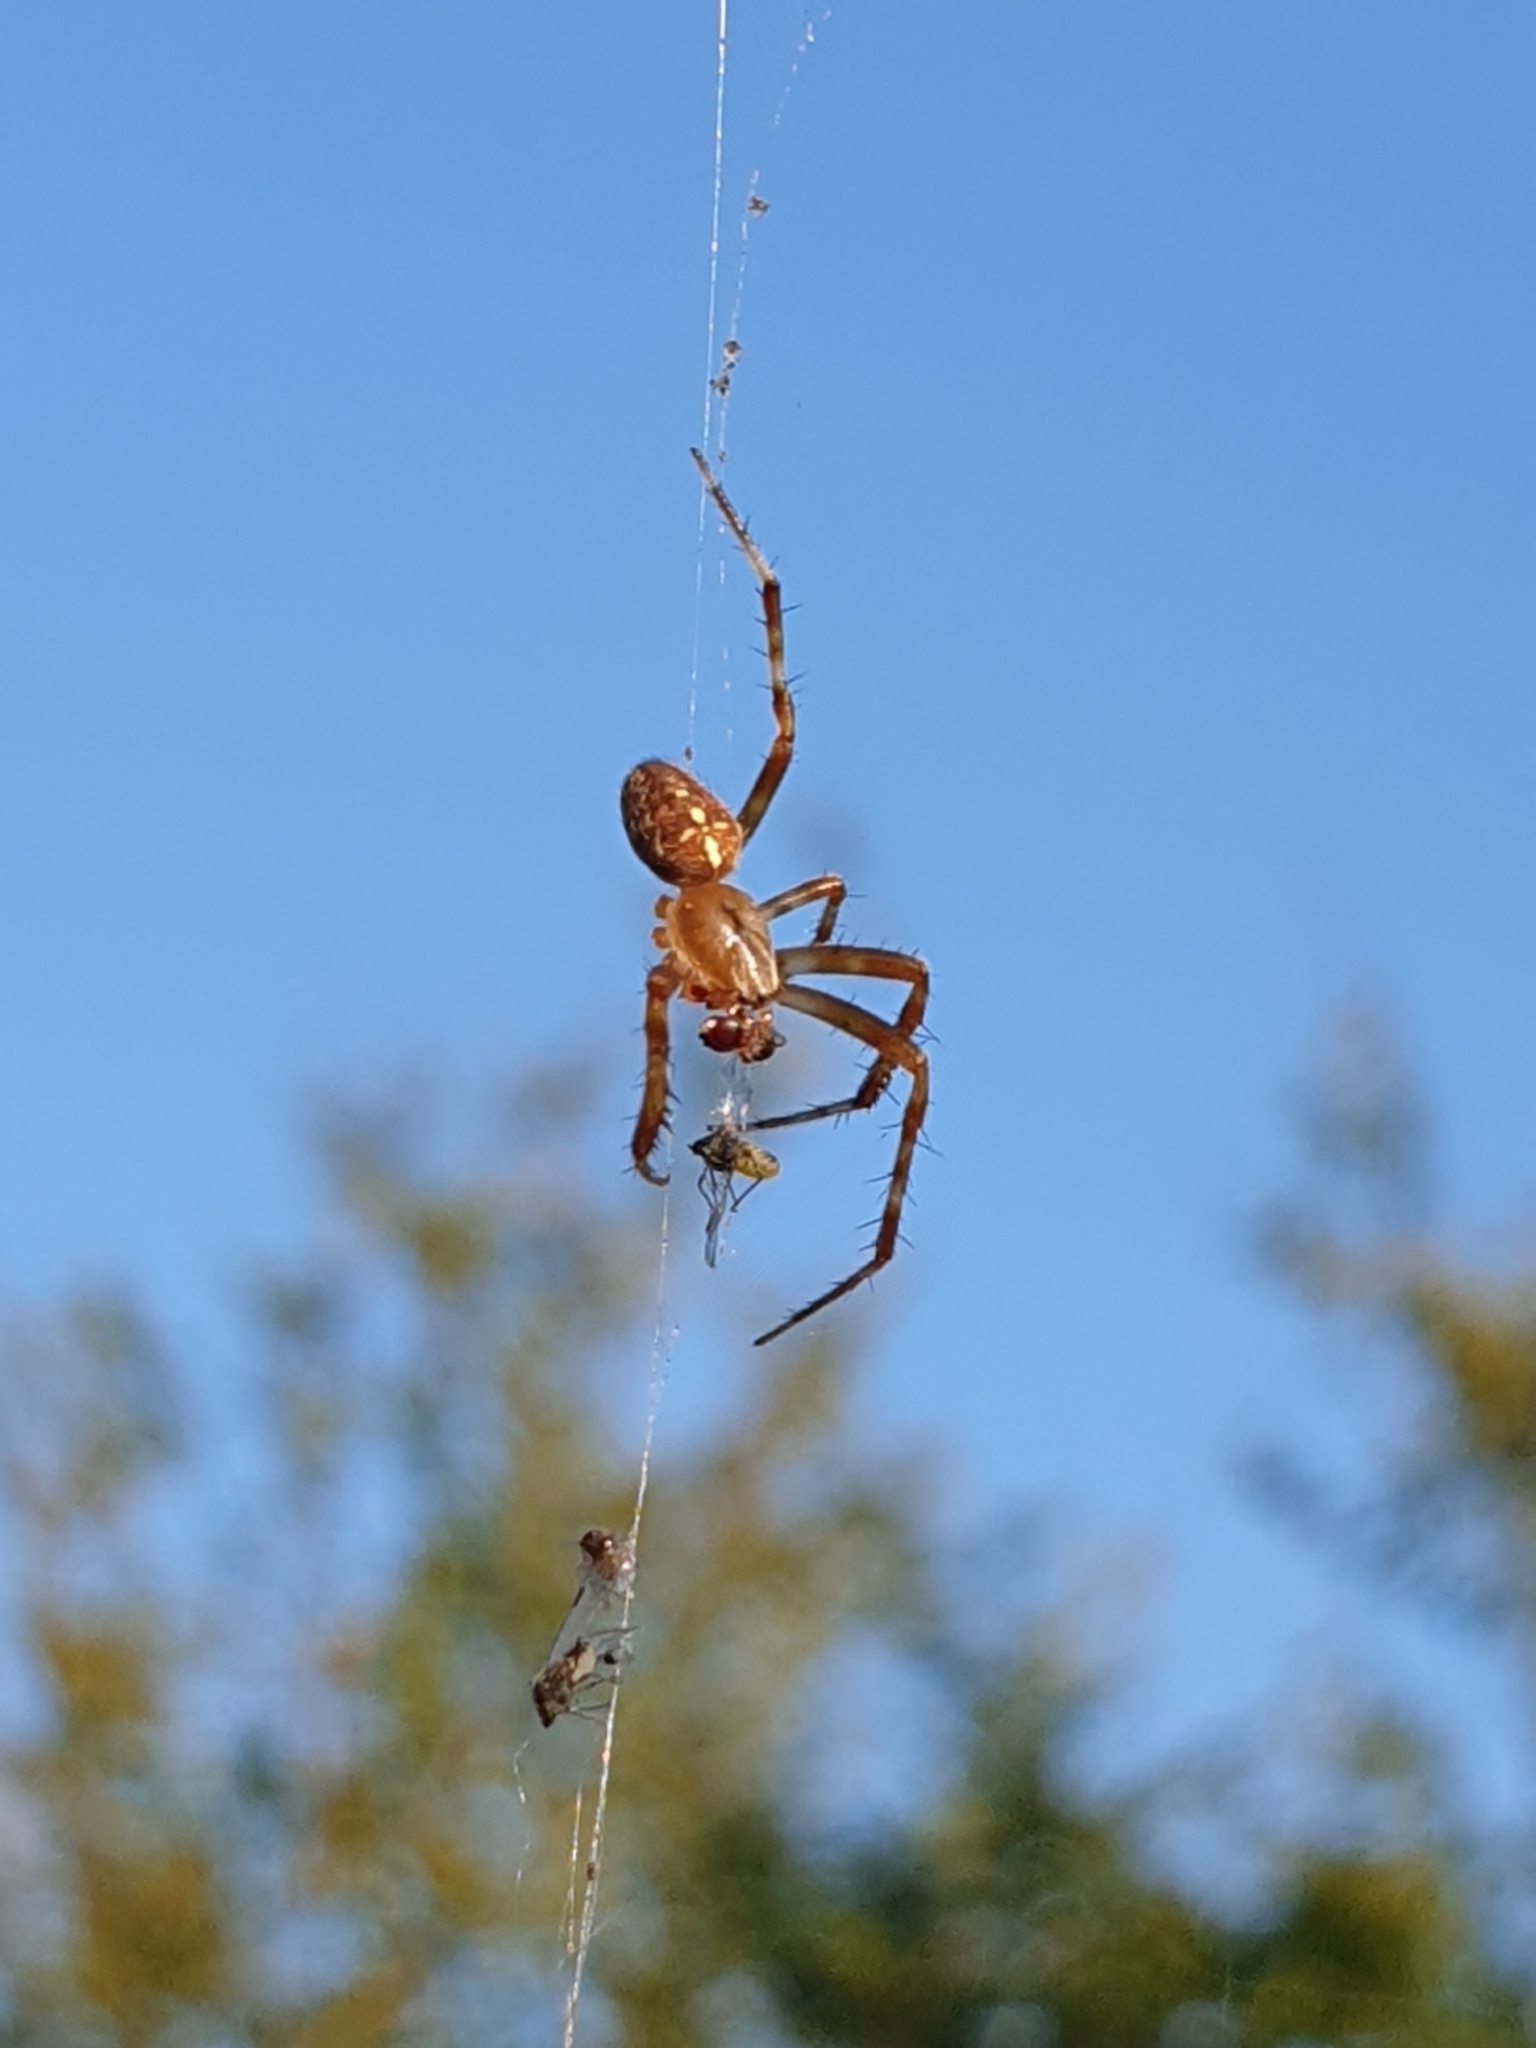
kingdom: Animalia
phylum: Arthropoda
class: Arachnida
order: Araneae
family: Araneidae
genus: Araneus
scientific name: Araneus diadematus
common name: Cross orbweaver
